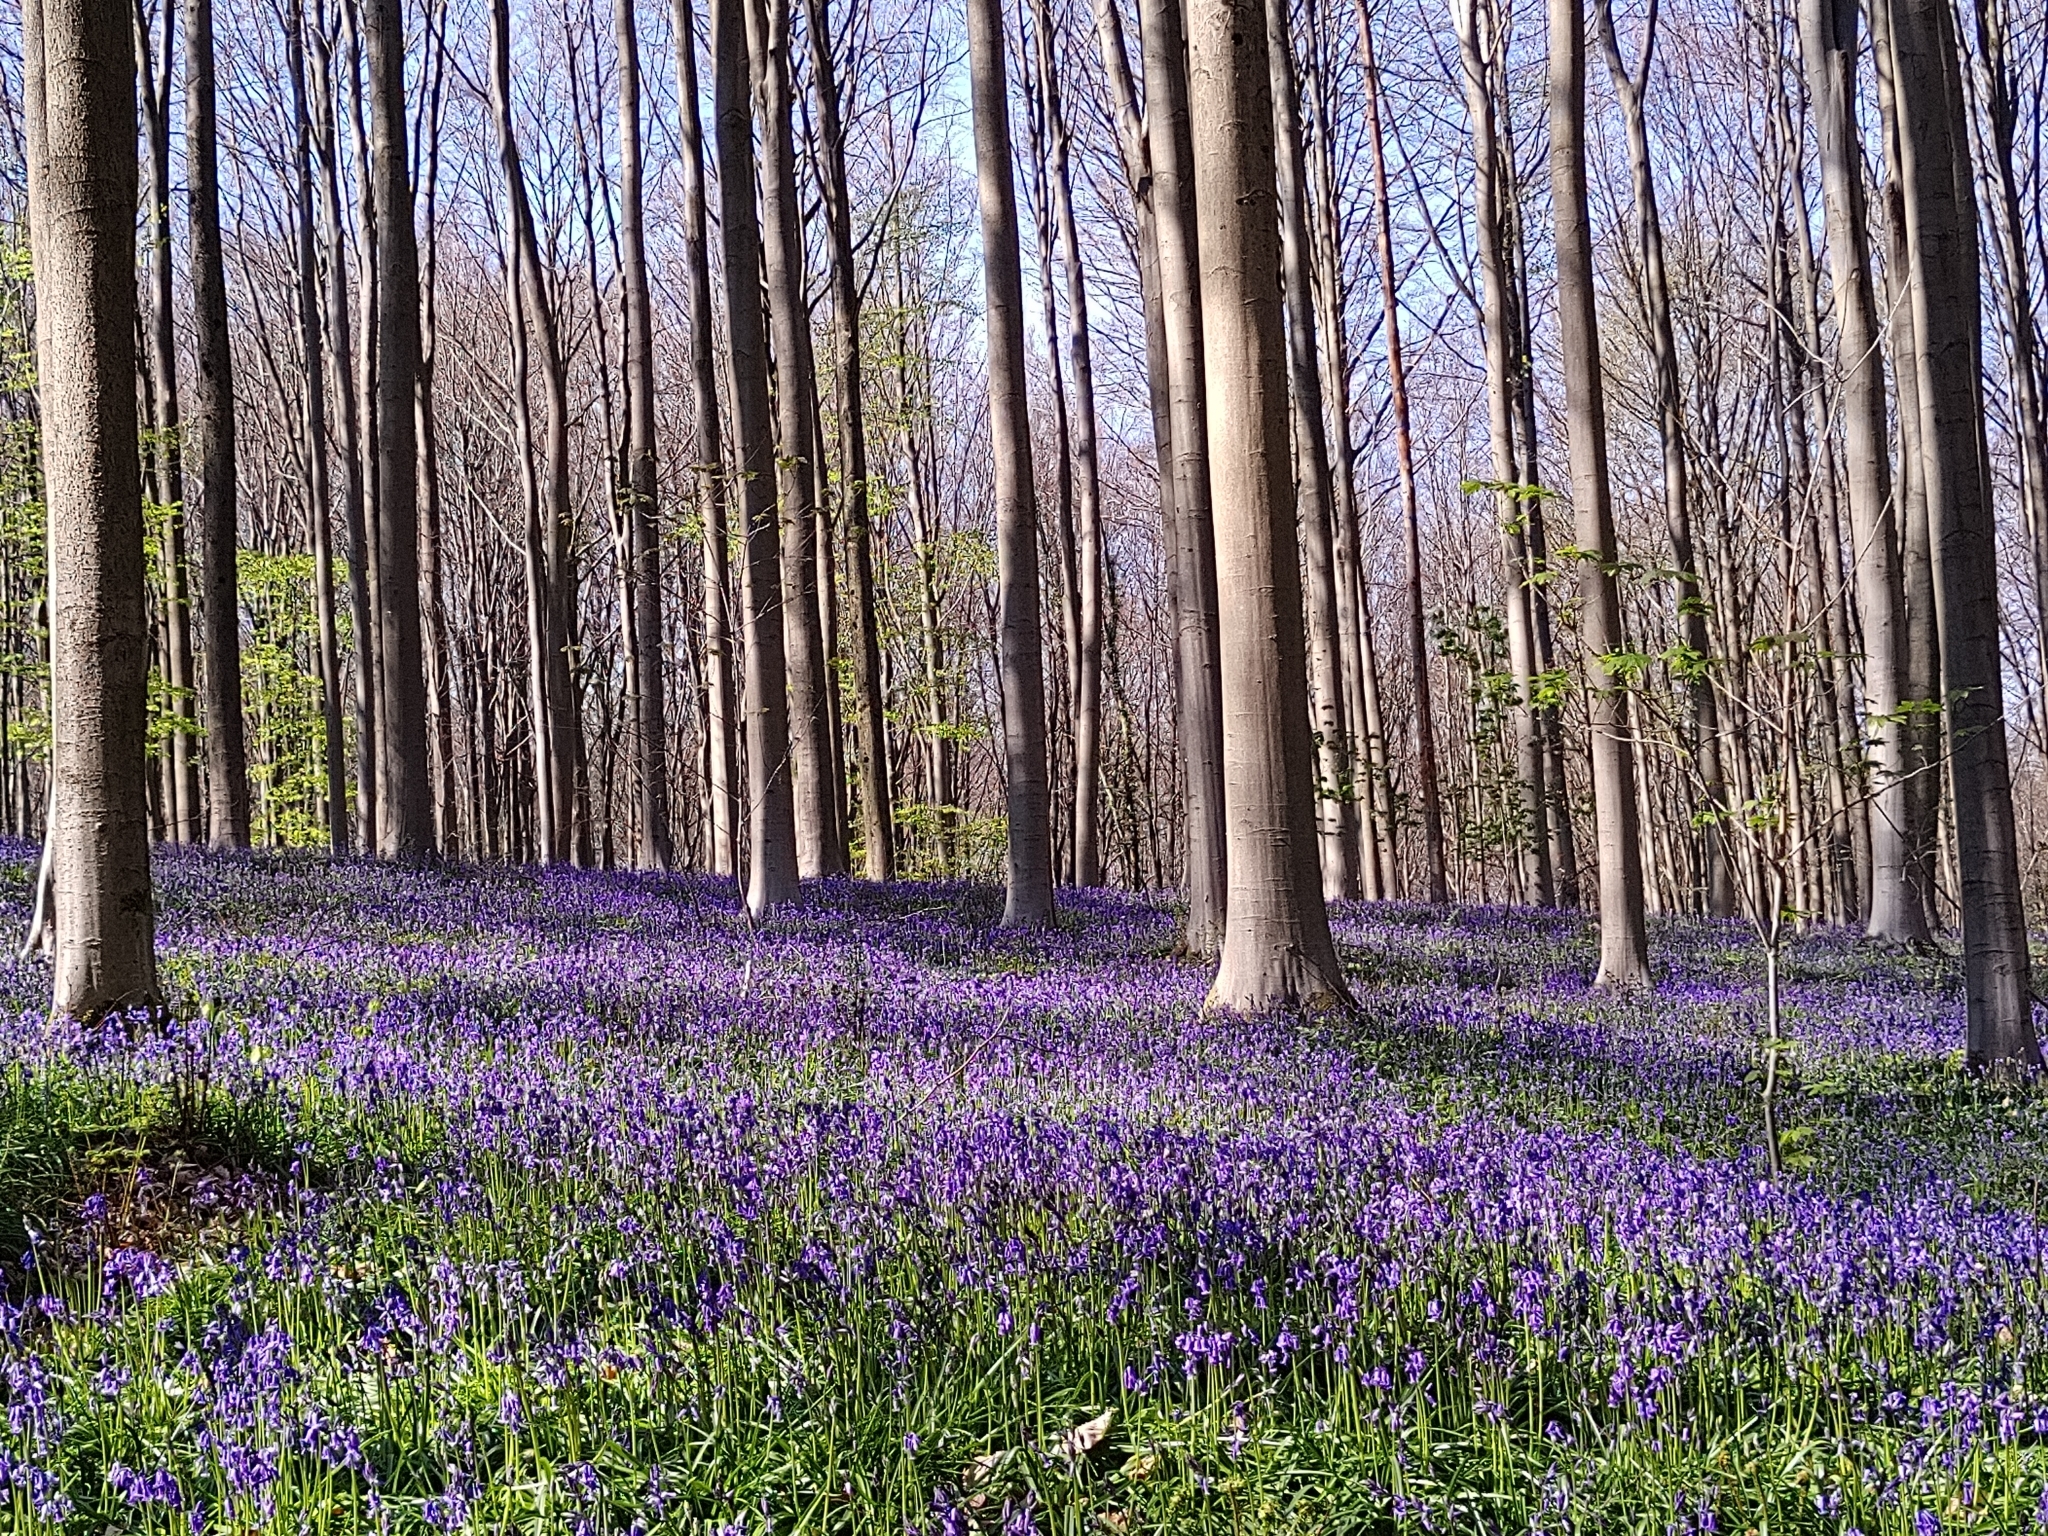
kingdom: Plantae
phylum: Tracheophyta
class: Liliopsida
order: Asparagales
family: Asparagaceae
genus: Hyacinthoides
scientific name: Hyacinthoides non-scripta
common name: Bluebell
